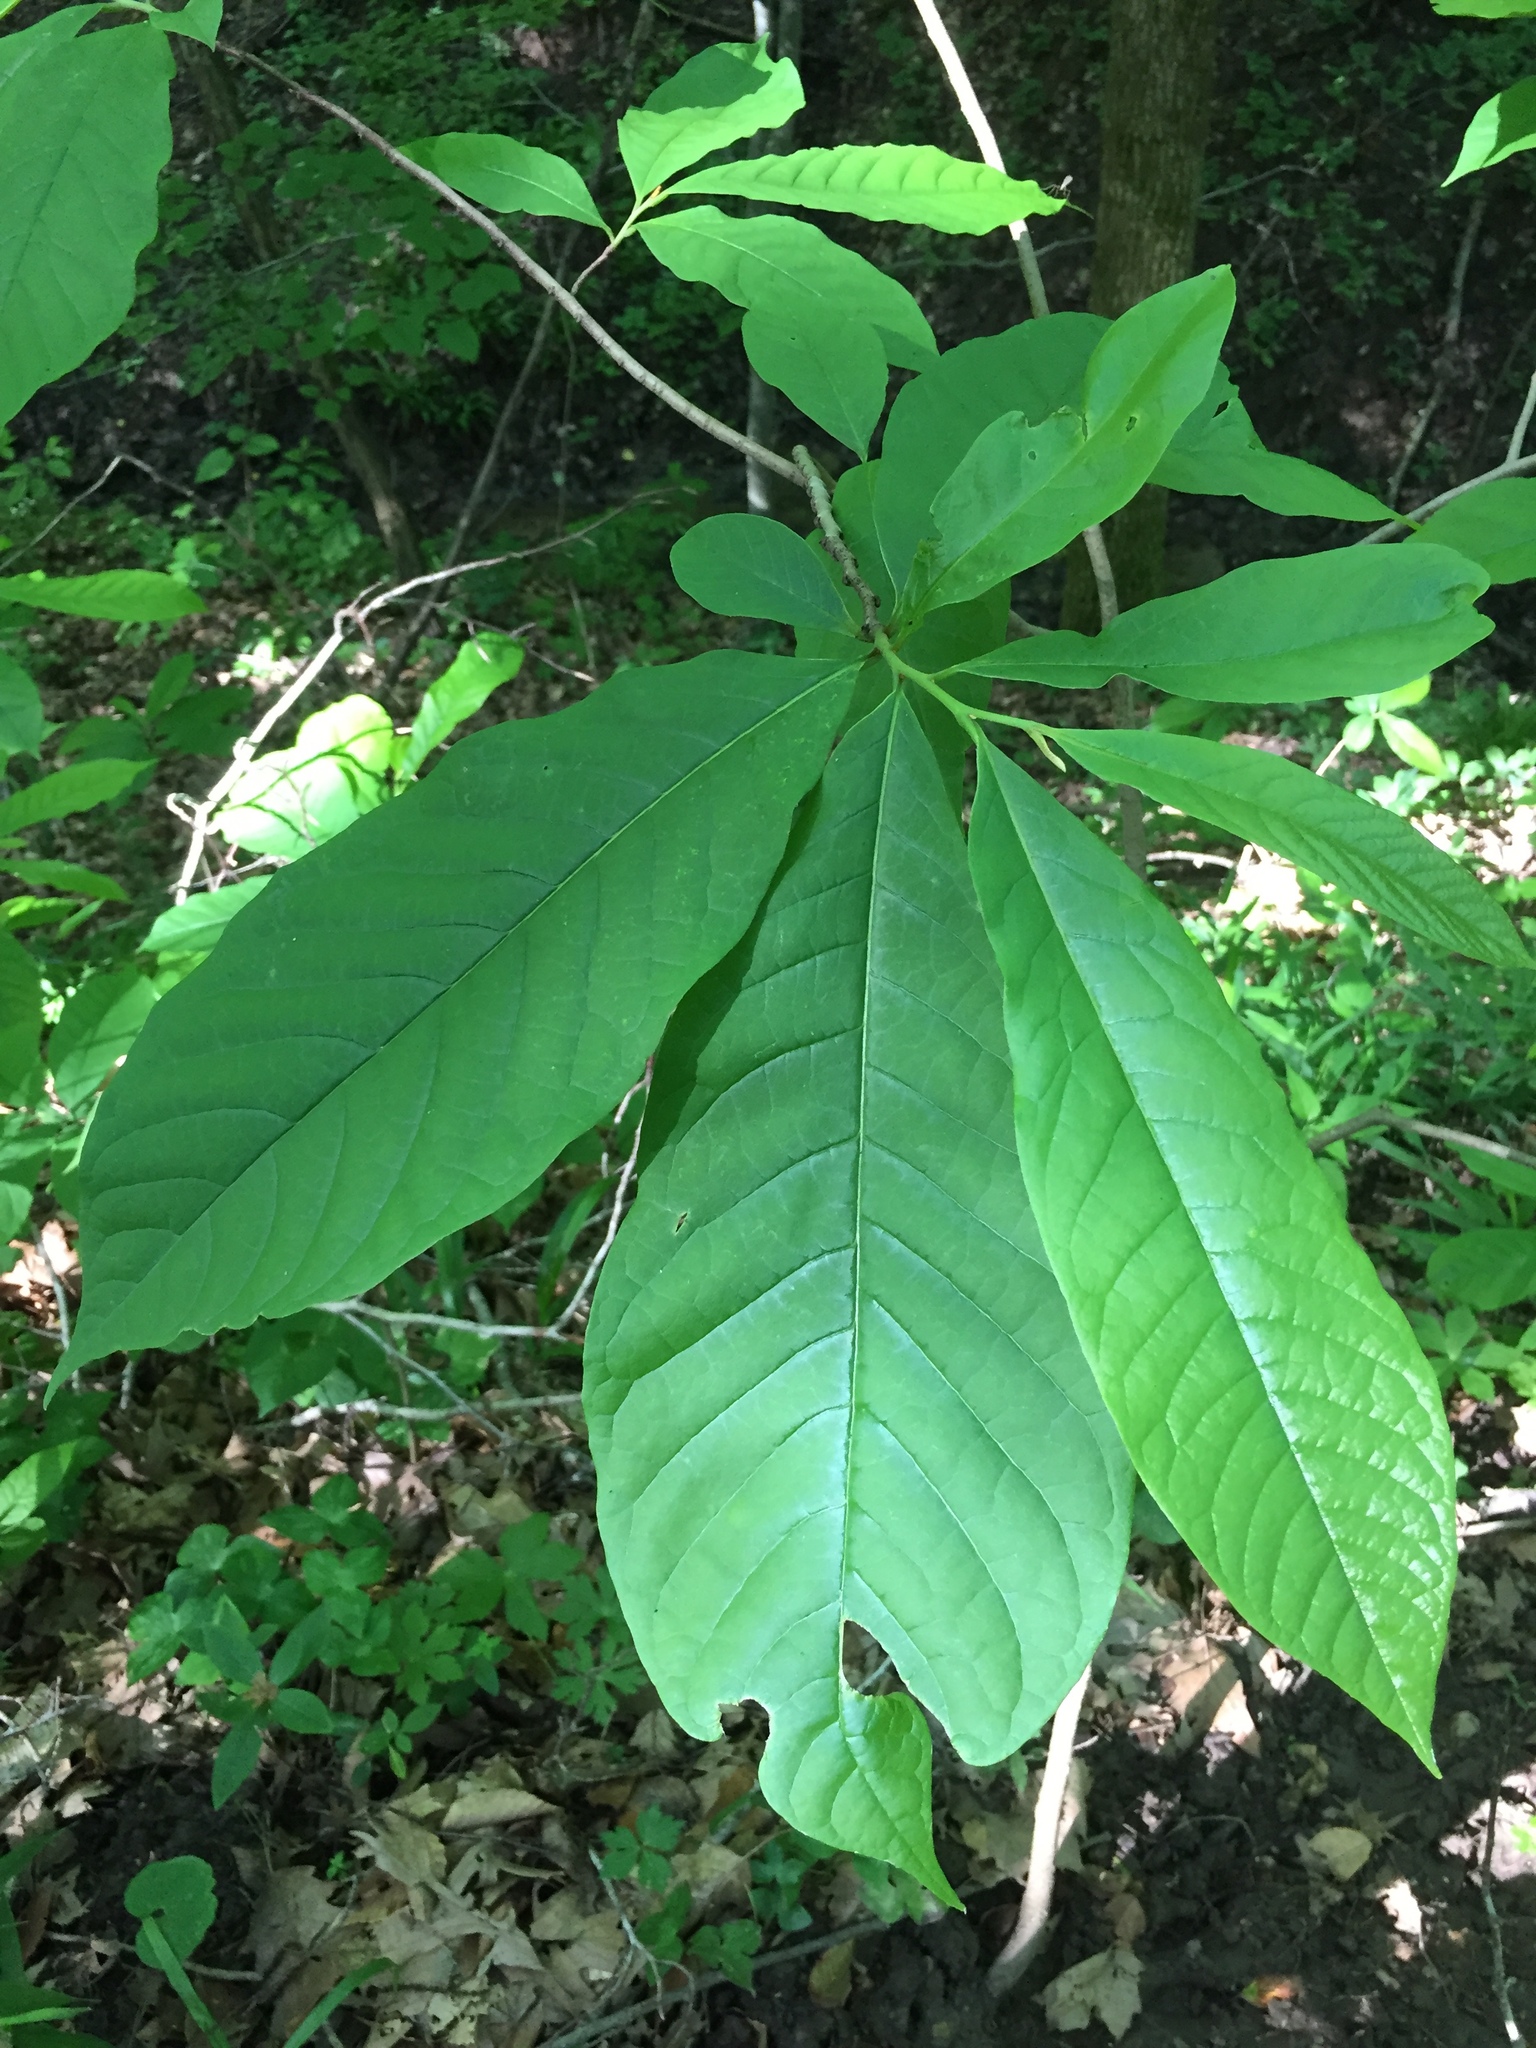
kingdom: Plantae
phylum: Tracheophyta
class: Magnoliopsida
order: Magnoliales
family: Annonaceae
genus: Asimina
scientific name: Asimina triloba
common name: Dog-banana
